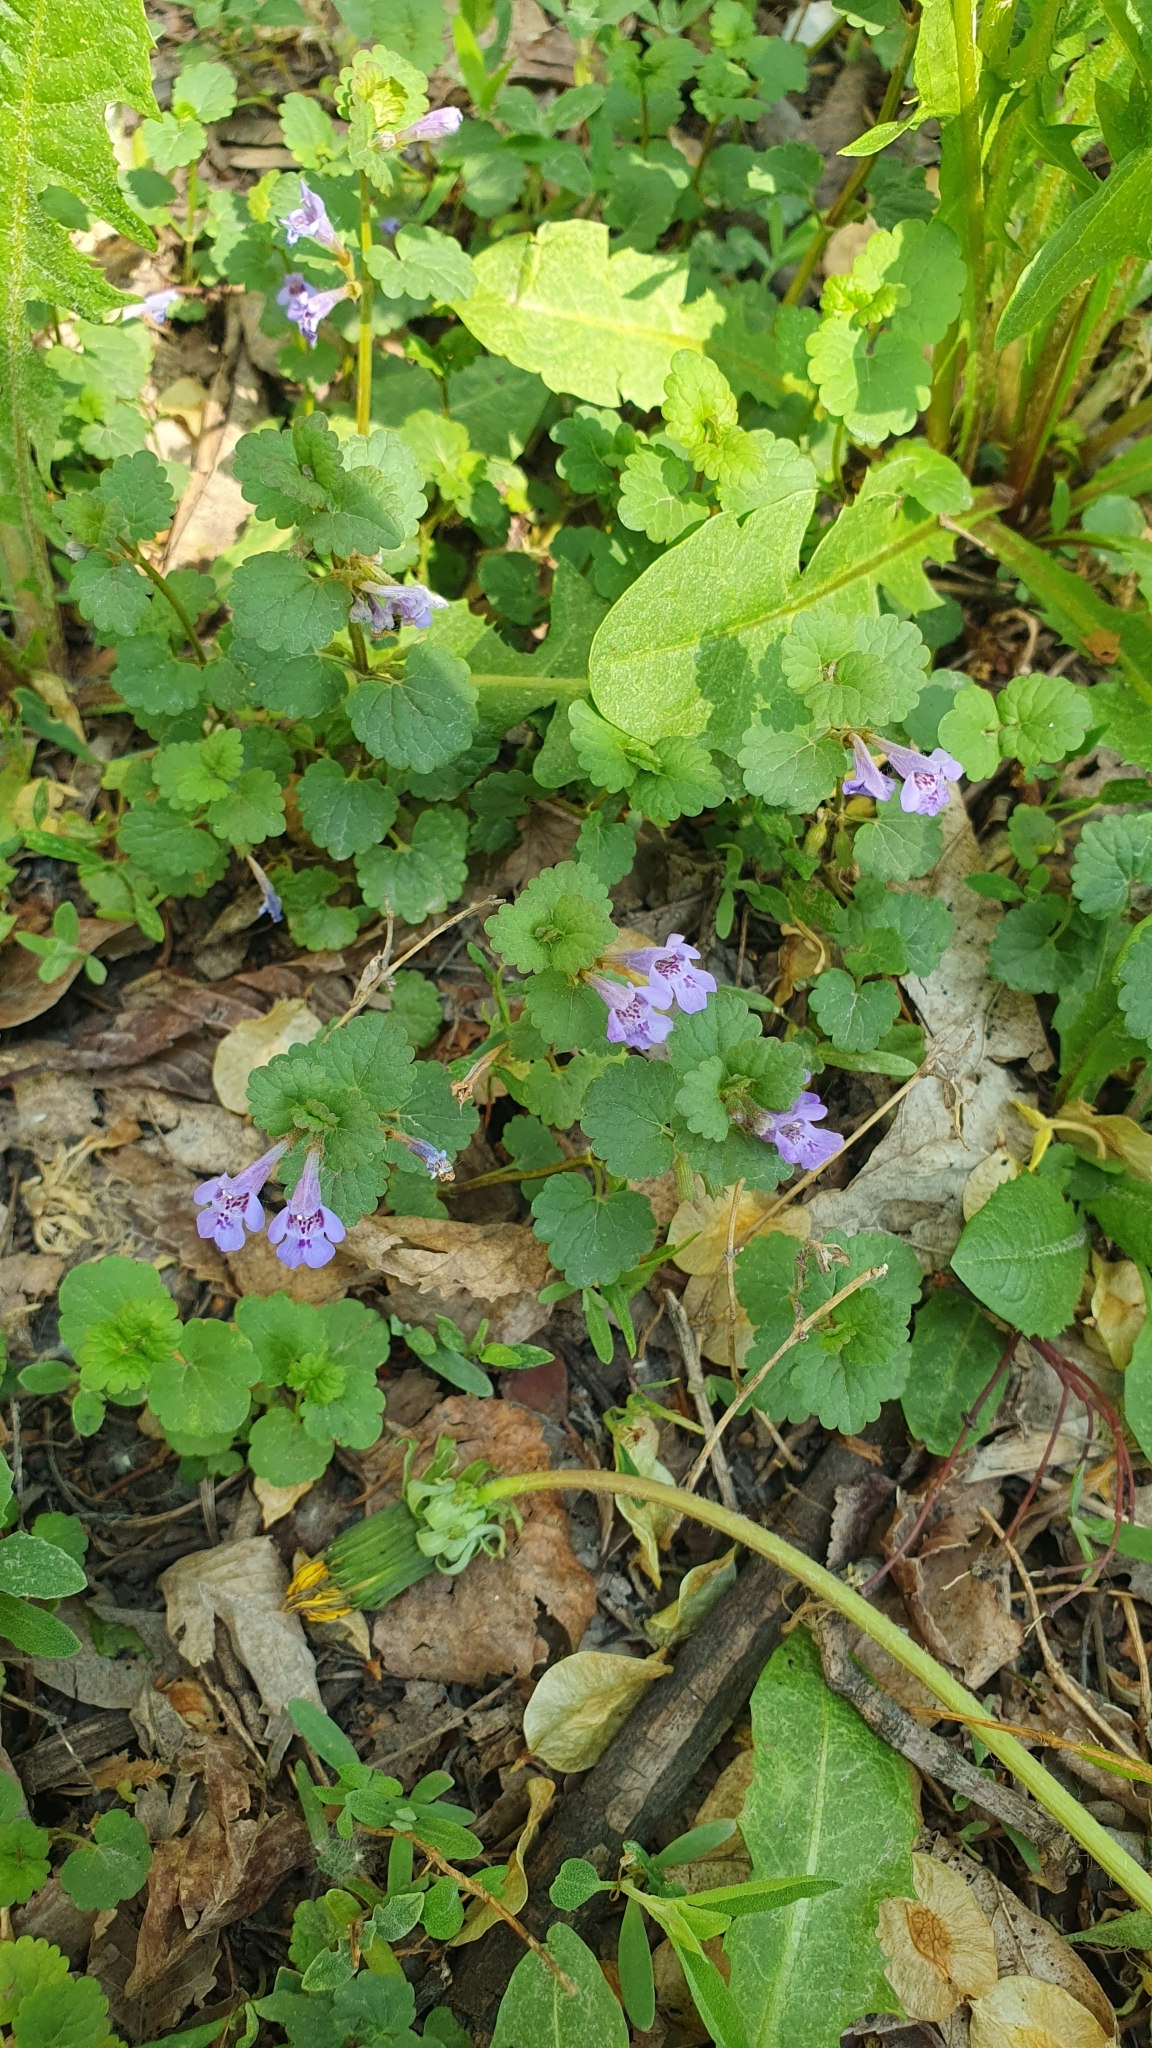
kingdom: Plantae
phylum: Tracheophyta
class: Magnoliopsida
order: Lamiales
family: Lamiaceae
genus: Glechoma
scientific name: Glechoma hederacea
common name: Ground ivy
